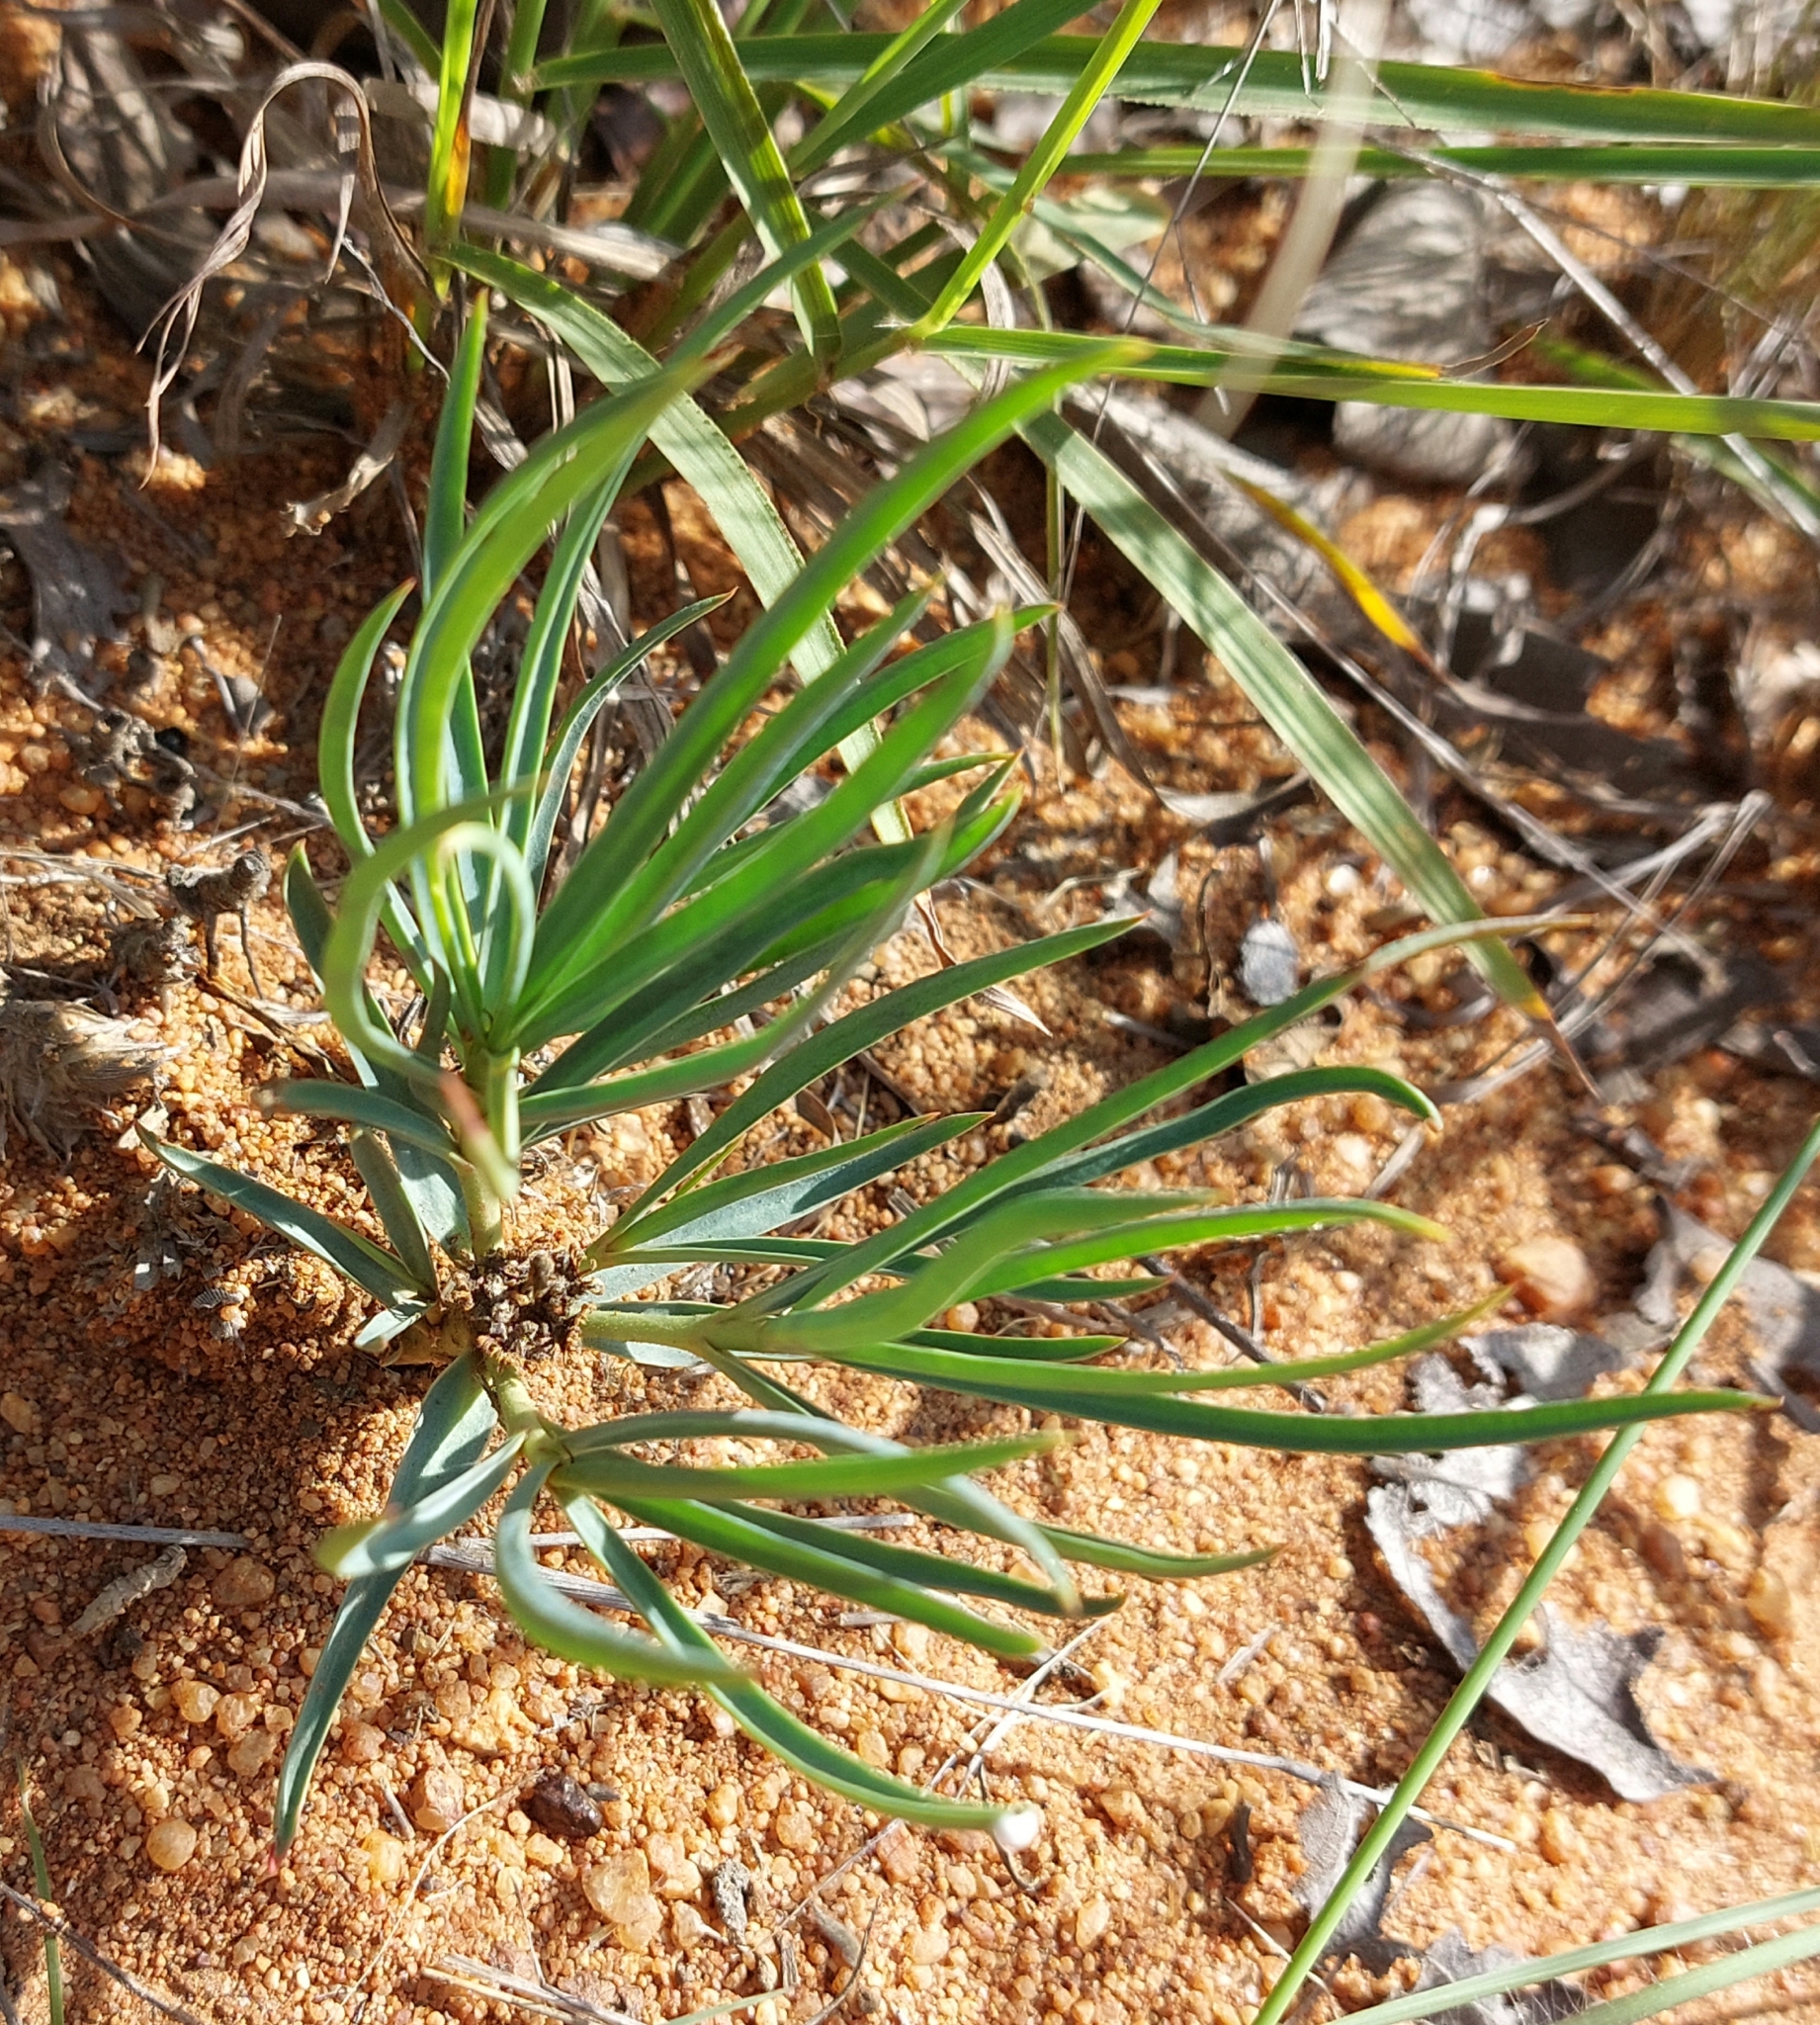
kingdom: Plantae
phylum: Tracheophyta
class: Magnoliopsida
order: Malpighiales
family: Euphorbiaceae
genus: Euphorbia
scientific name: Euphorbia trichadenia
